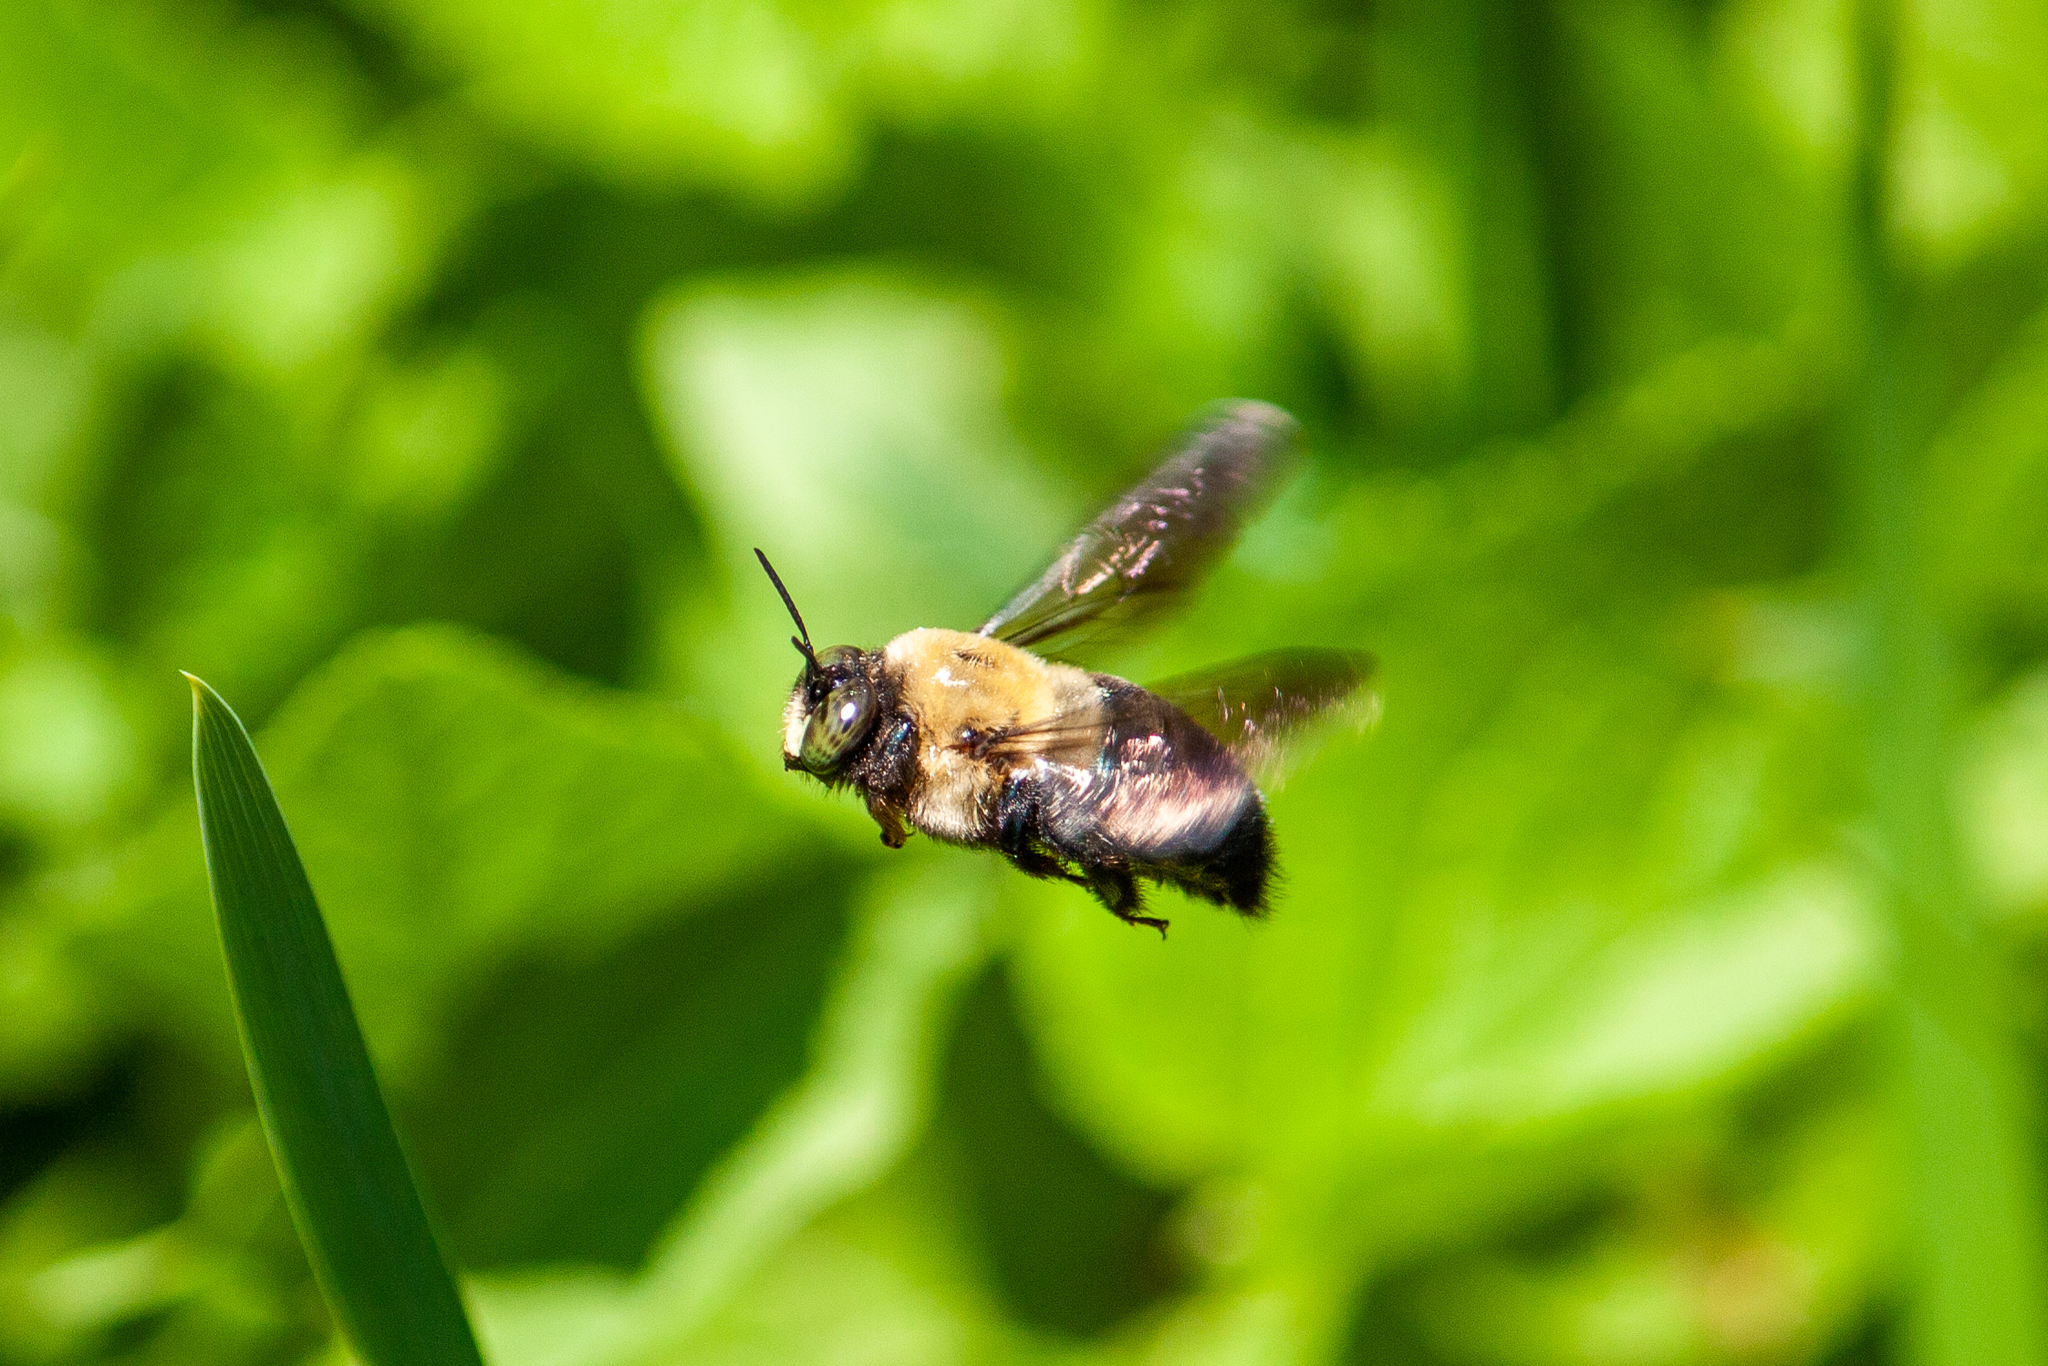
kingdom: Animalia
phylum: Arthropoda
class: Insecta
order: Hymenoptera
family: Apidae
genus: Xylocopa
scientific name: Xylocopa virginica
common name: Carpenter bee
